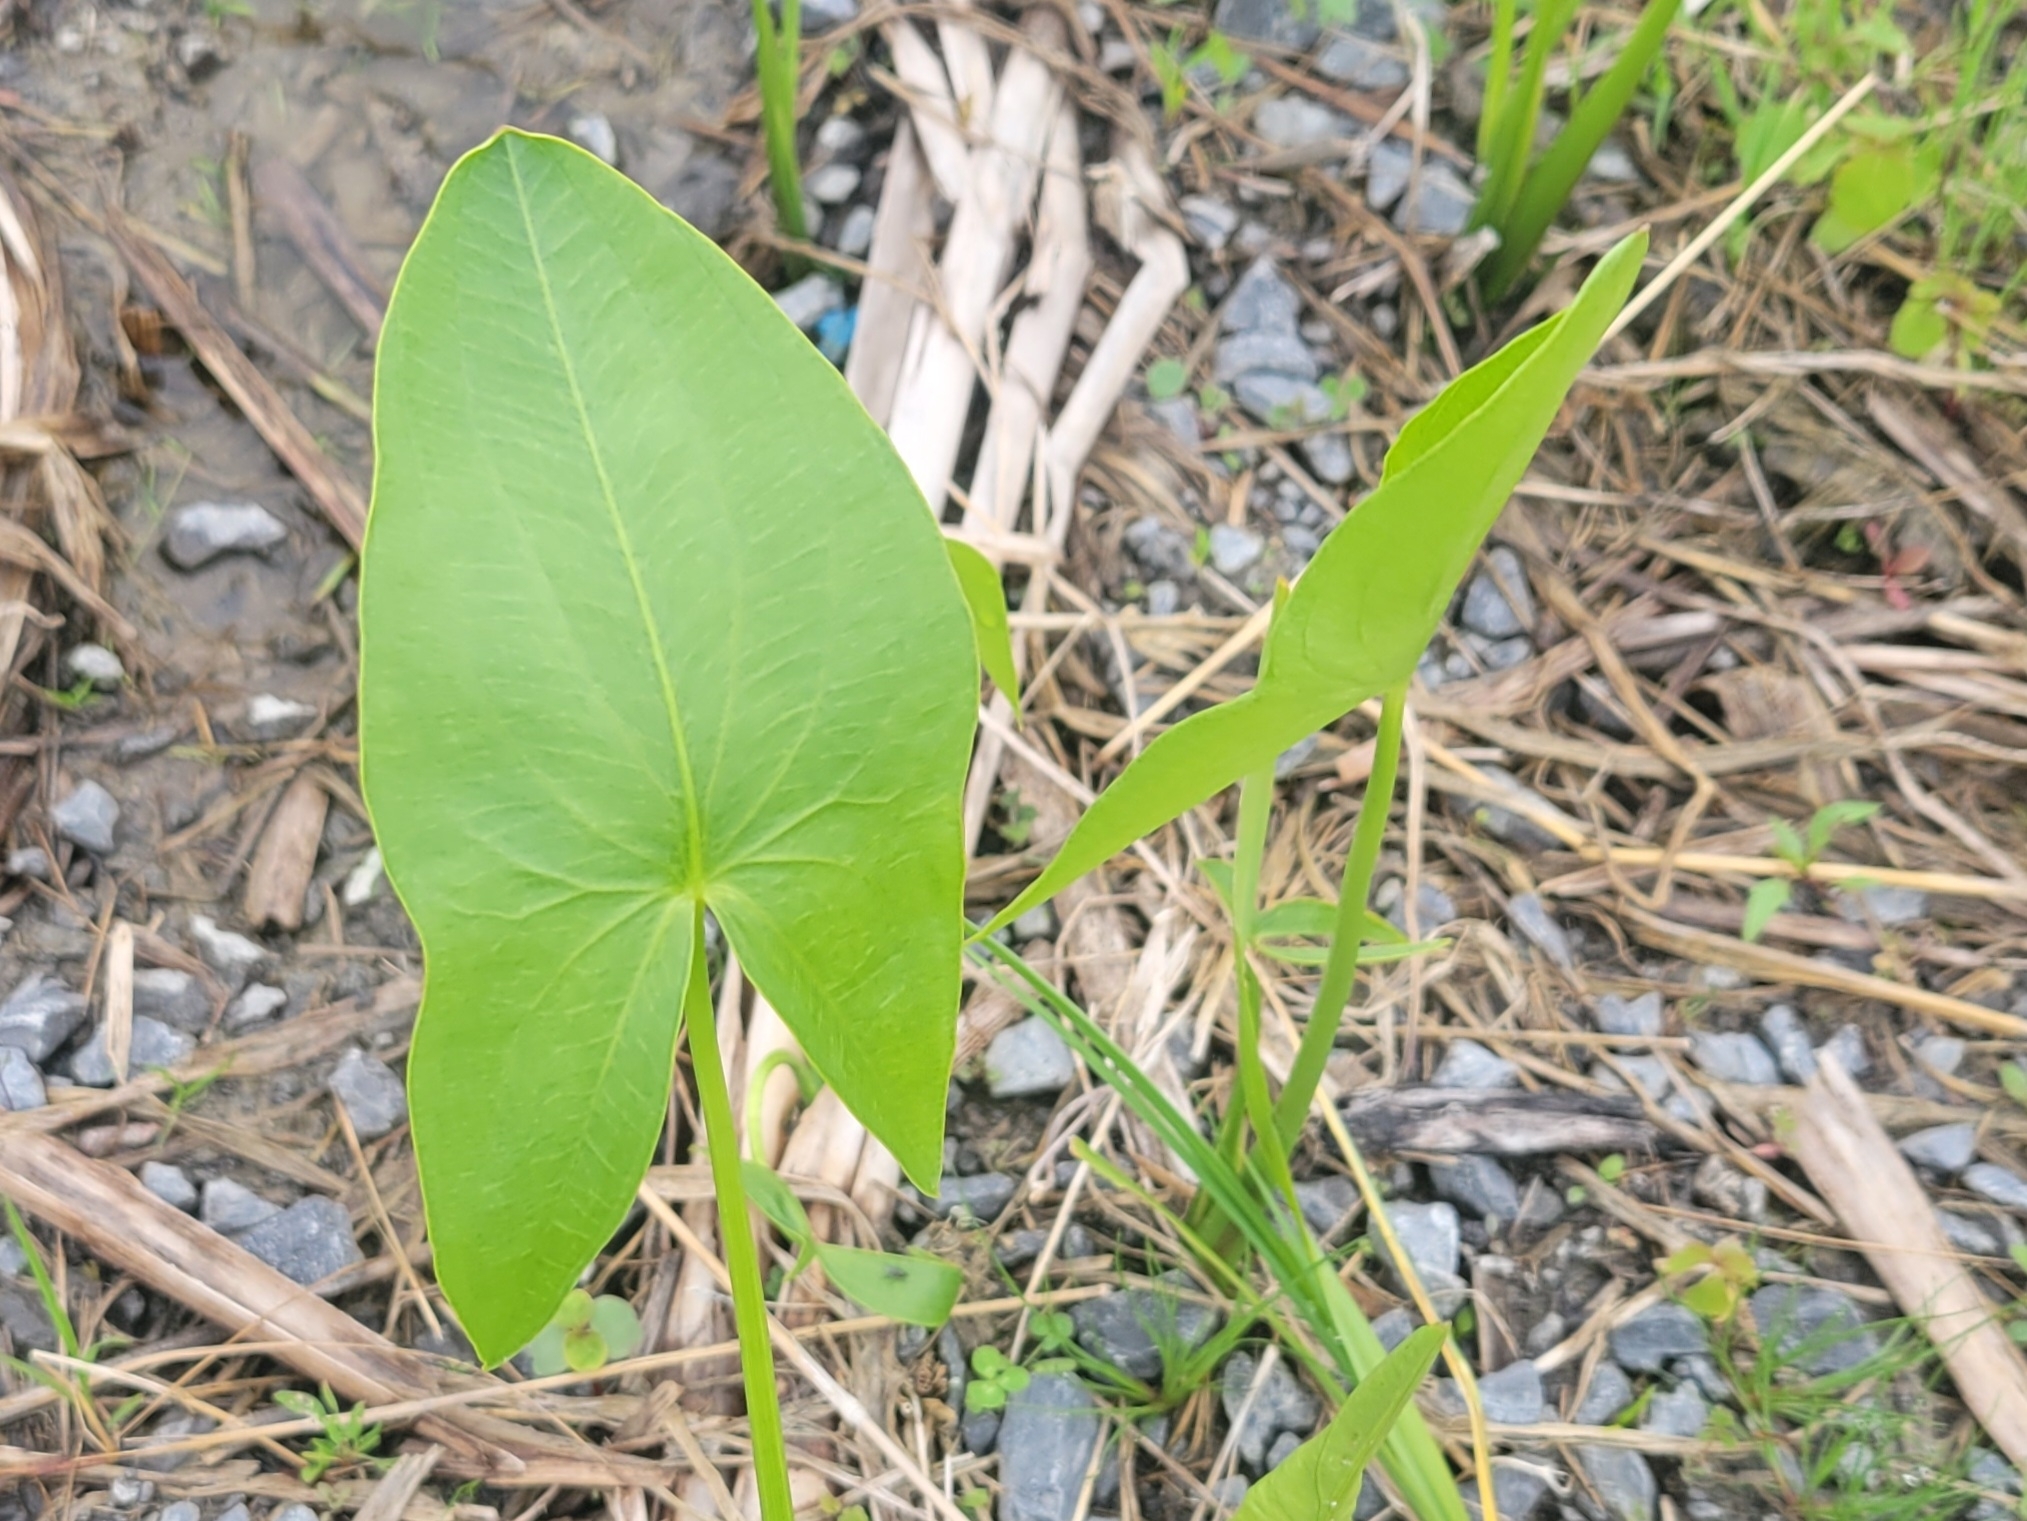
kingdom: Plantae
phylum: Tracheophyta
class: Liliopsida
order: Alismatales
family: Alismataceae
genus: Sagittaria
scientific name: Sagittaria latifolia
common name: Duck-potato
